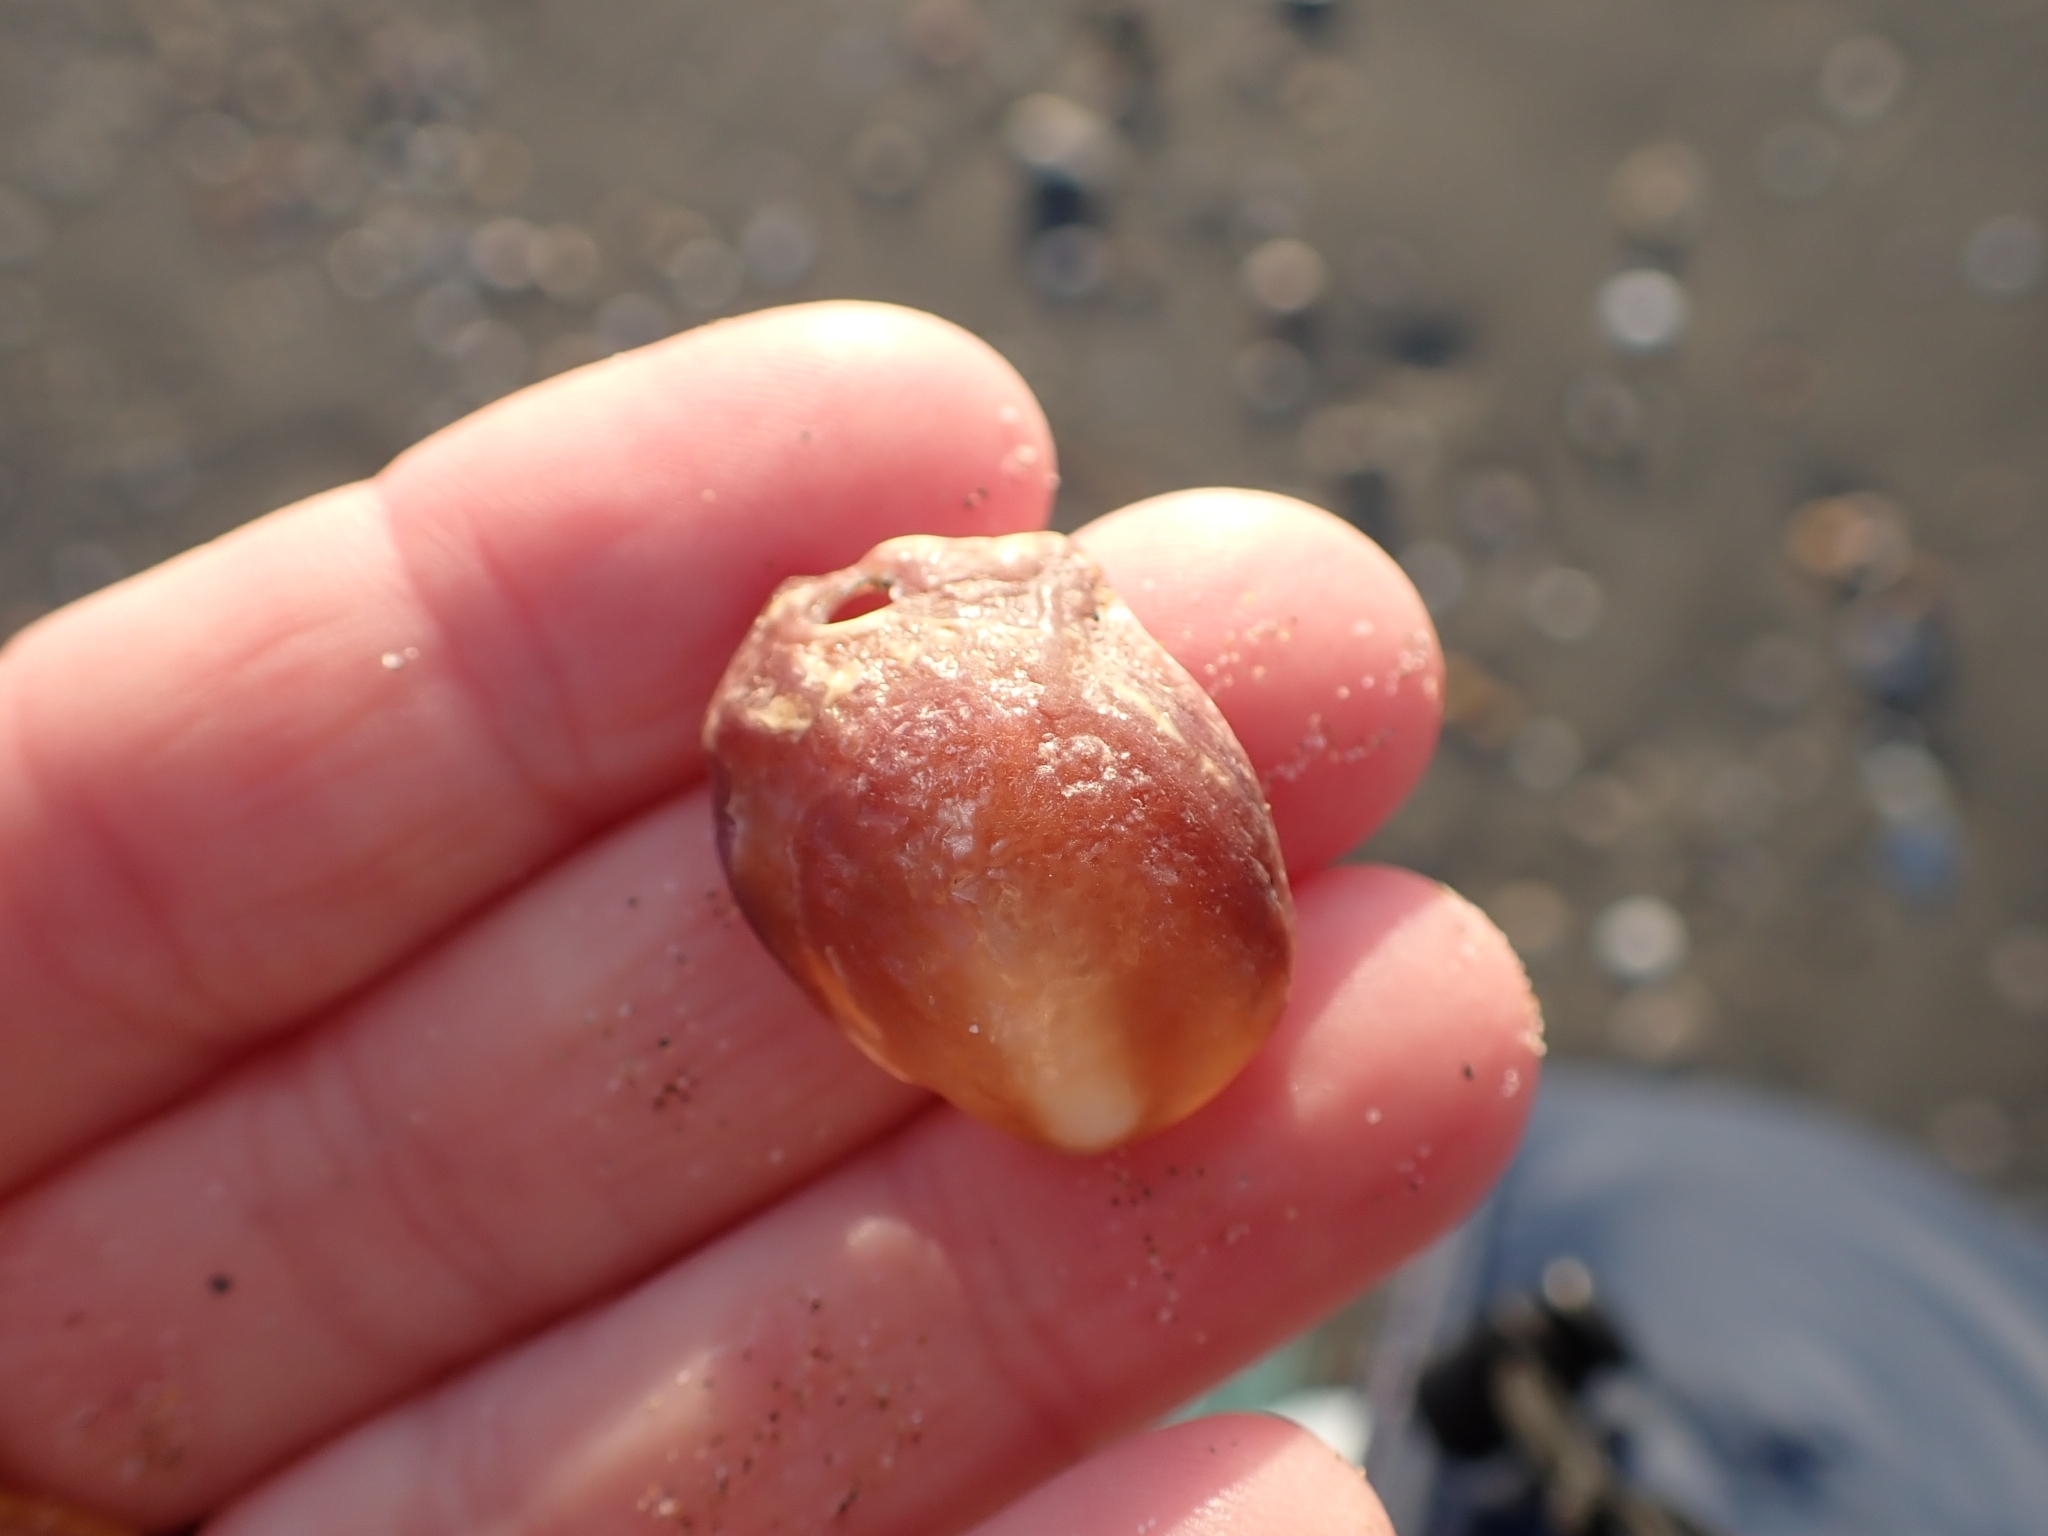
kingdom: Animalia
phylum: Mollusca
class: Bivalvia
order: Pectinida
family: Anomiidae
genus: Anomia
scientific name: Anomia ephippium
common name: Saddle oyster
